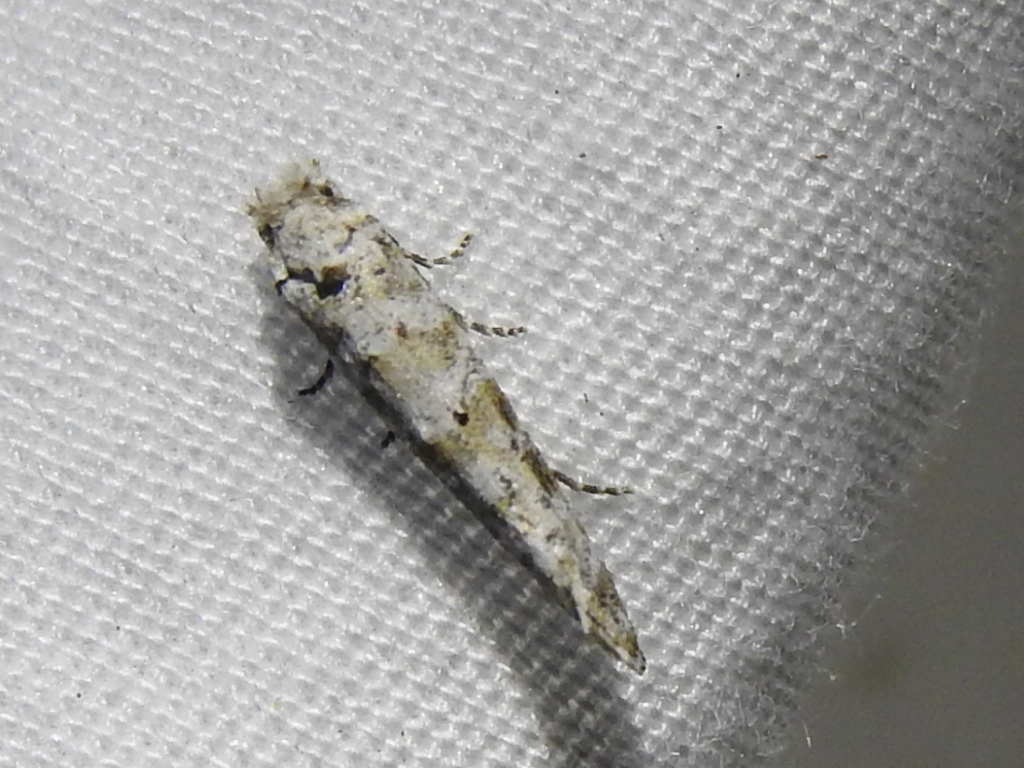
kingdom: Animalia
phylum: Arthropoda
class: Insecta
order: Lepidoptera
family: Tineidae
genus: Xylesthia
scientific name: Xylesthia pruniramiella
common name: Clemens' bark moth
